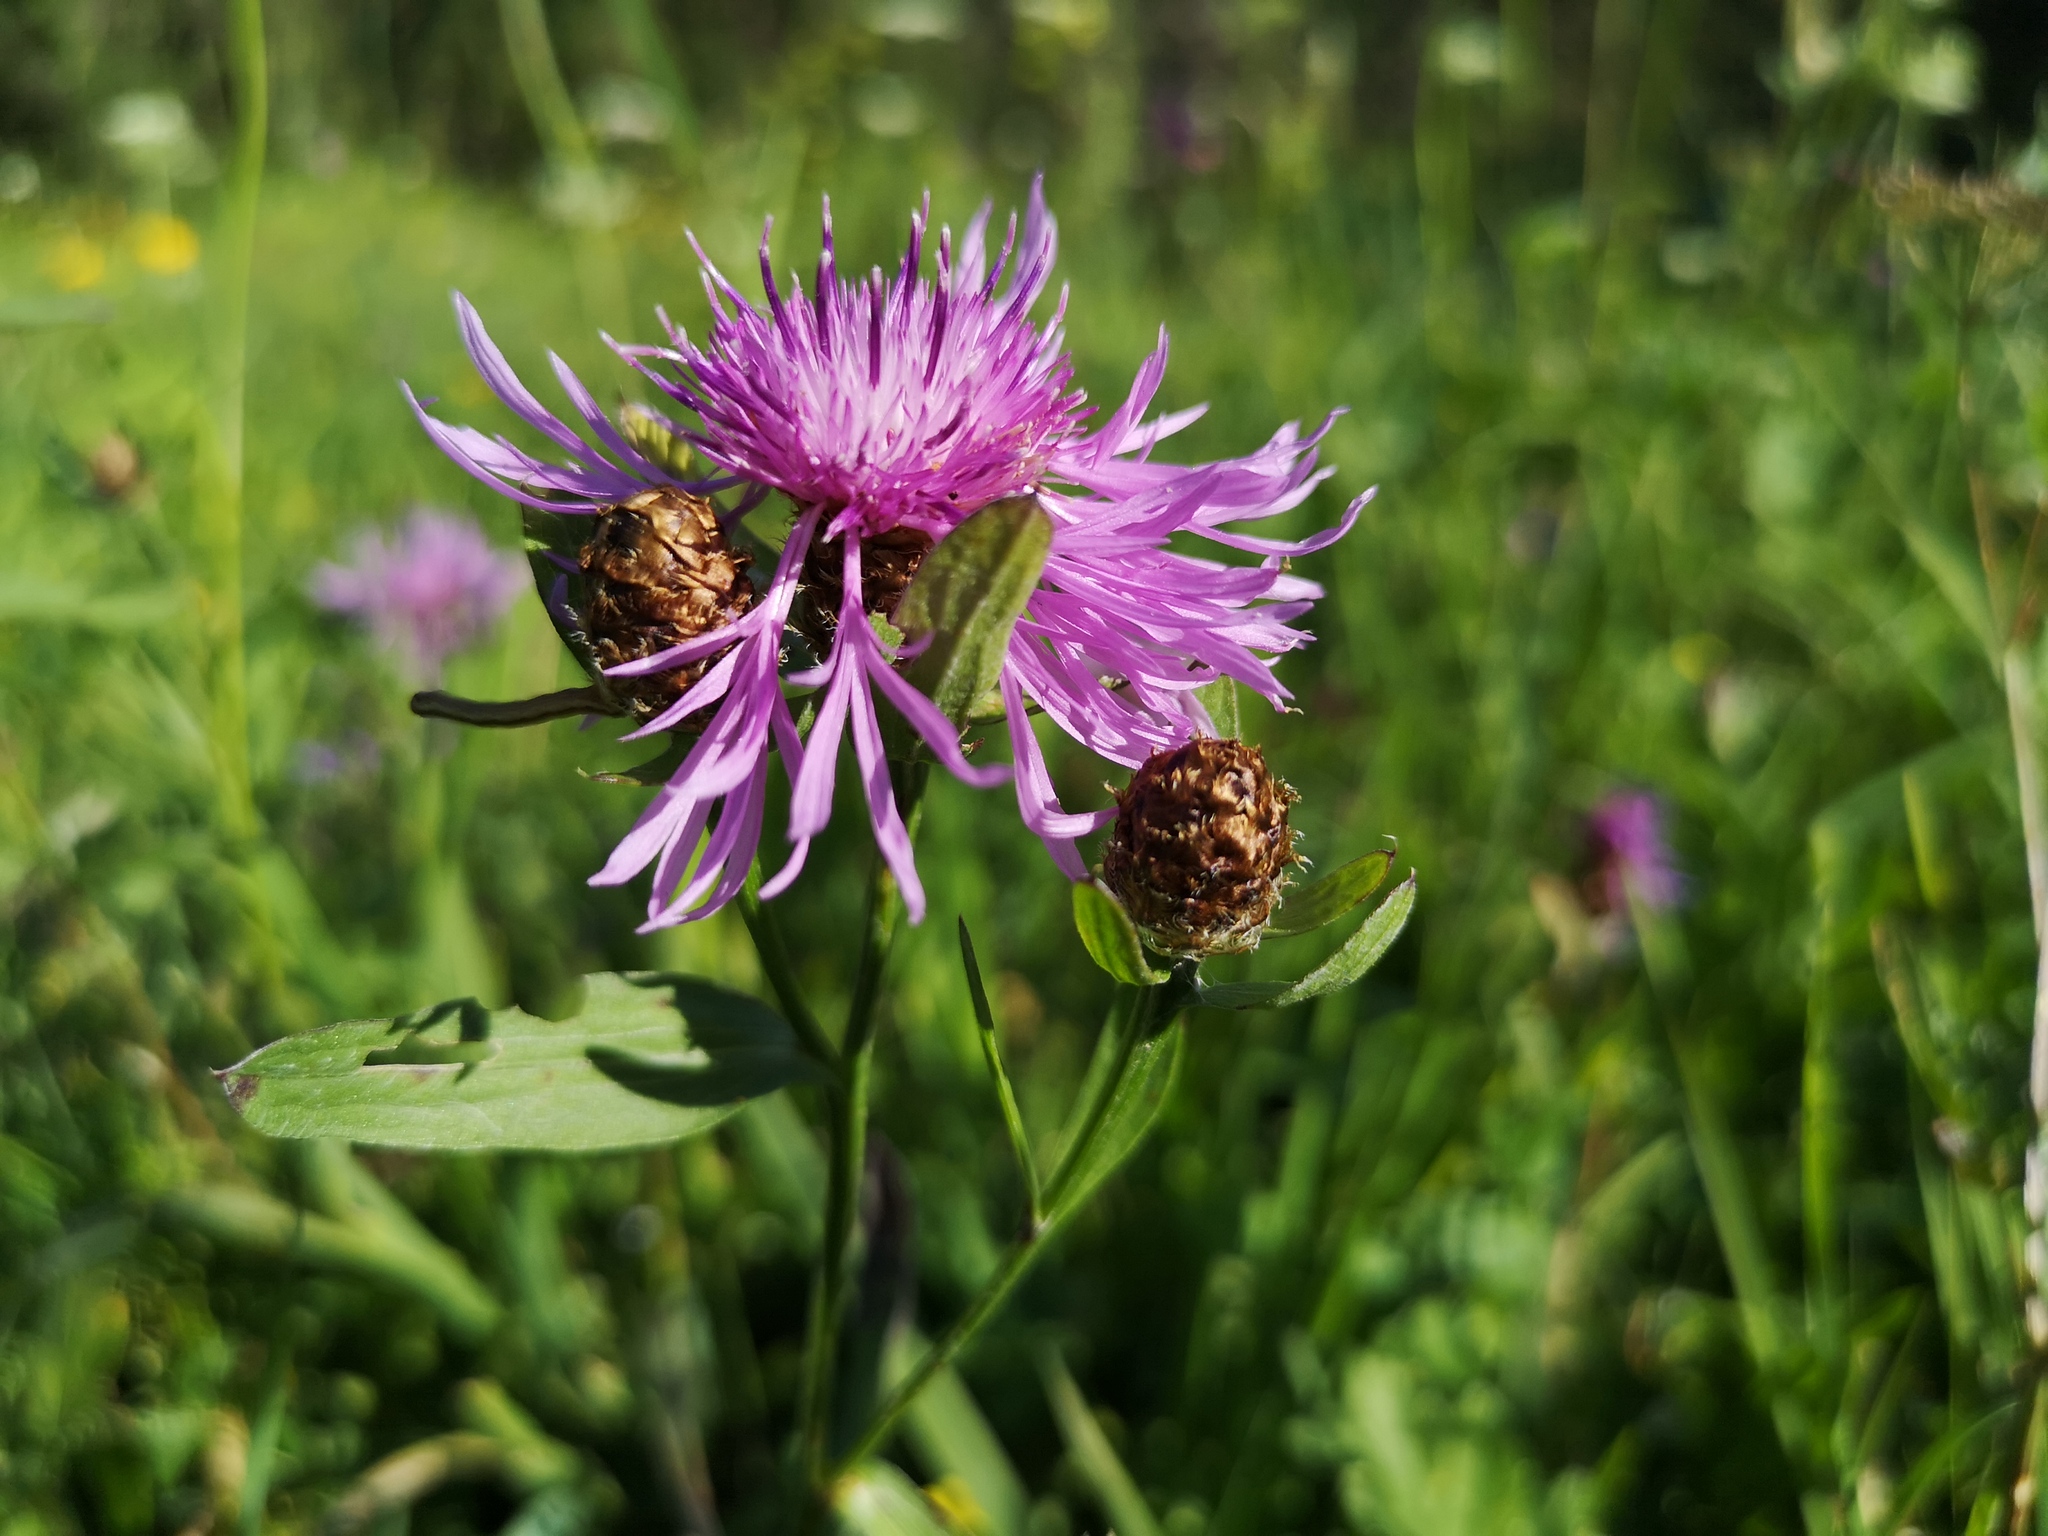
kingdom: Plantae
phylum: Tracheophyta
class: Magnoliopsida
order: Asterales
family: Asteraceae
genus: Centaurea
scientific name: Centaurea jacea
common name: Brown knapweed
